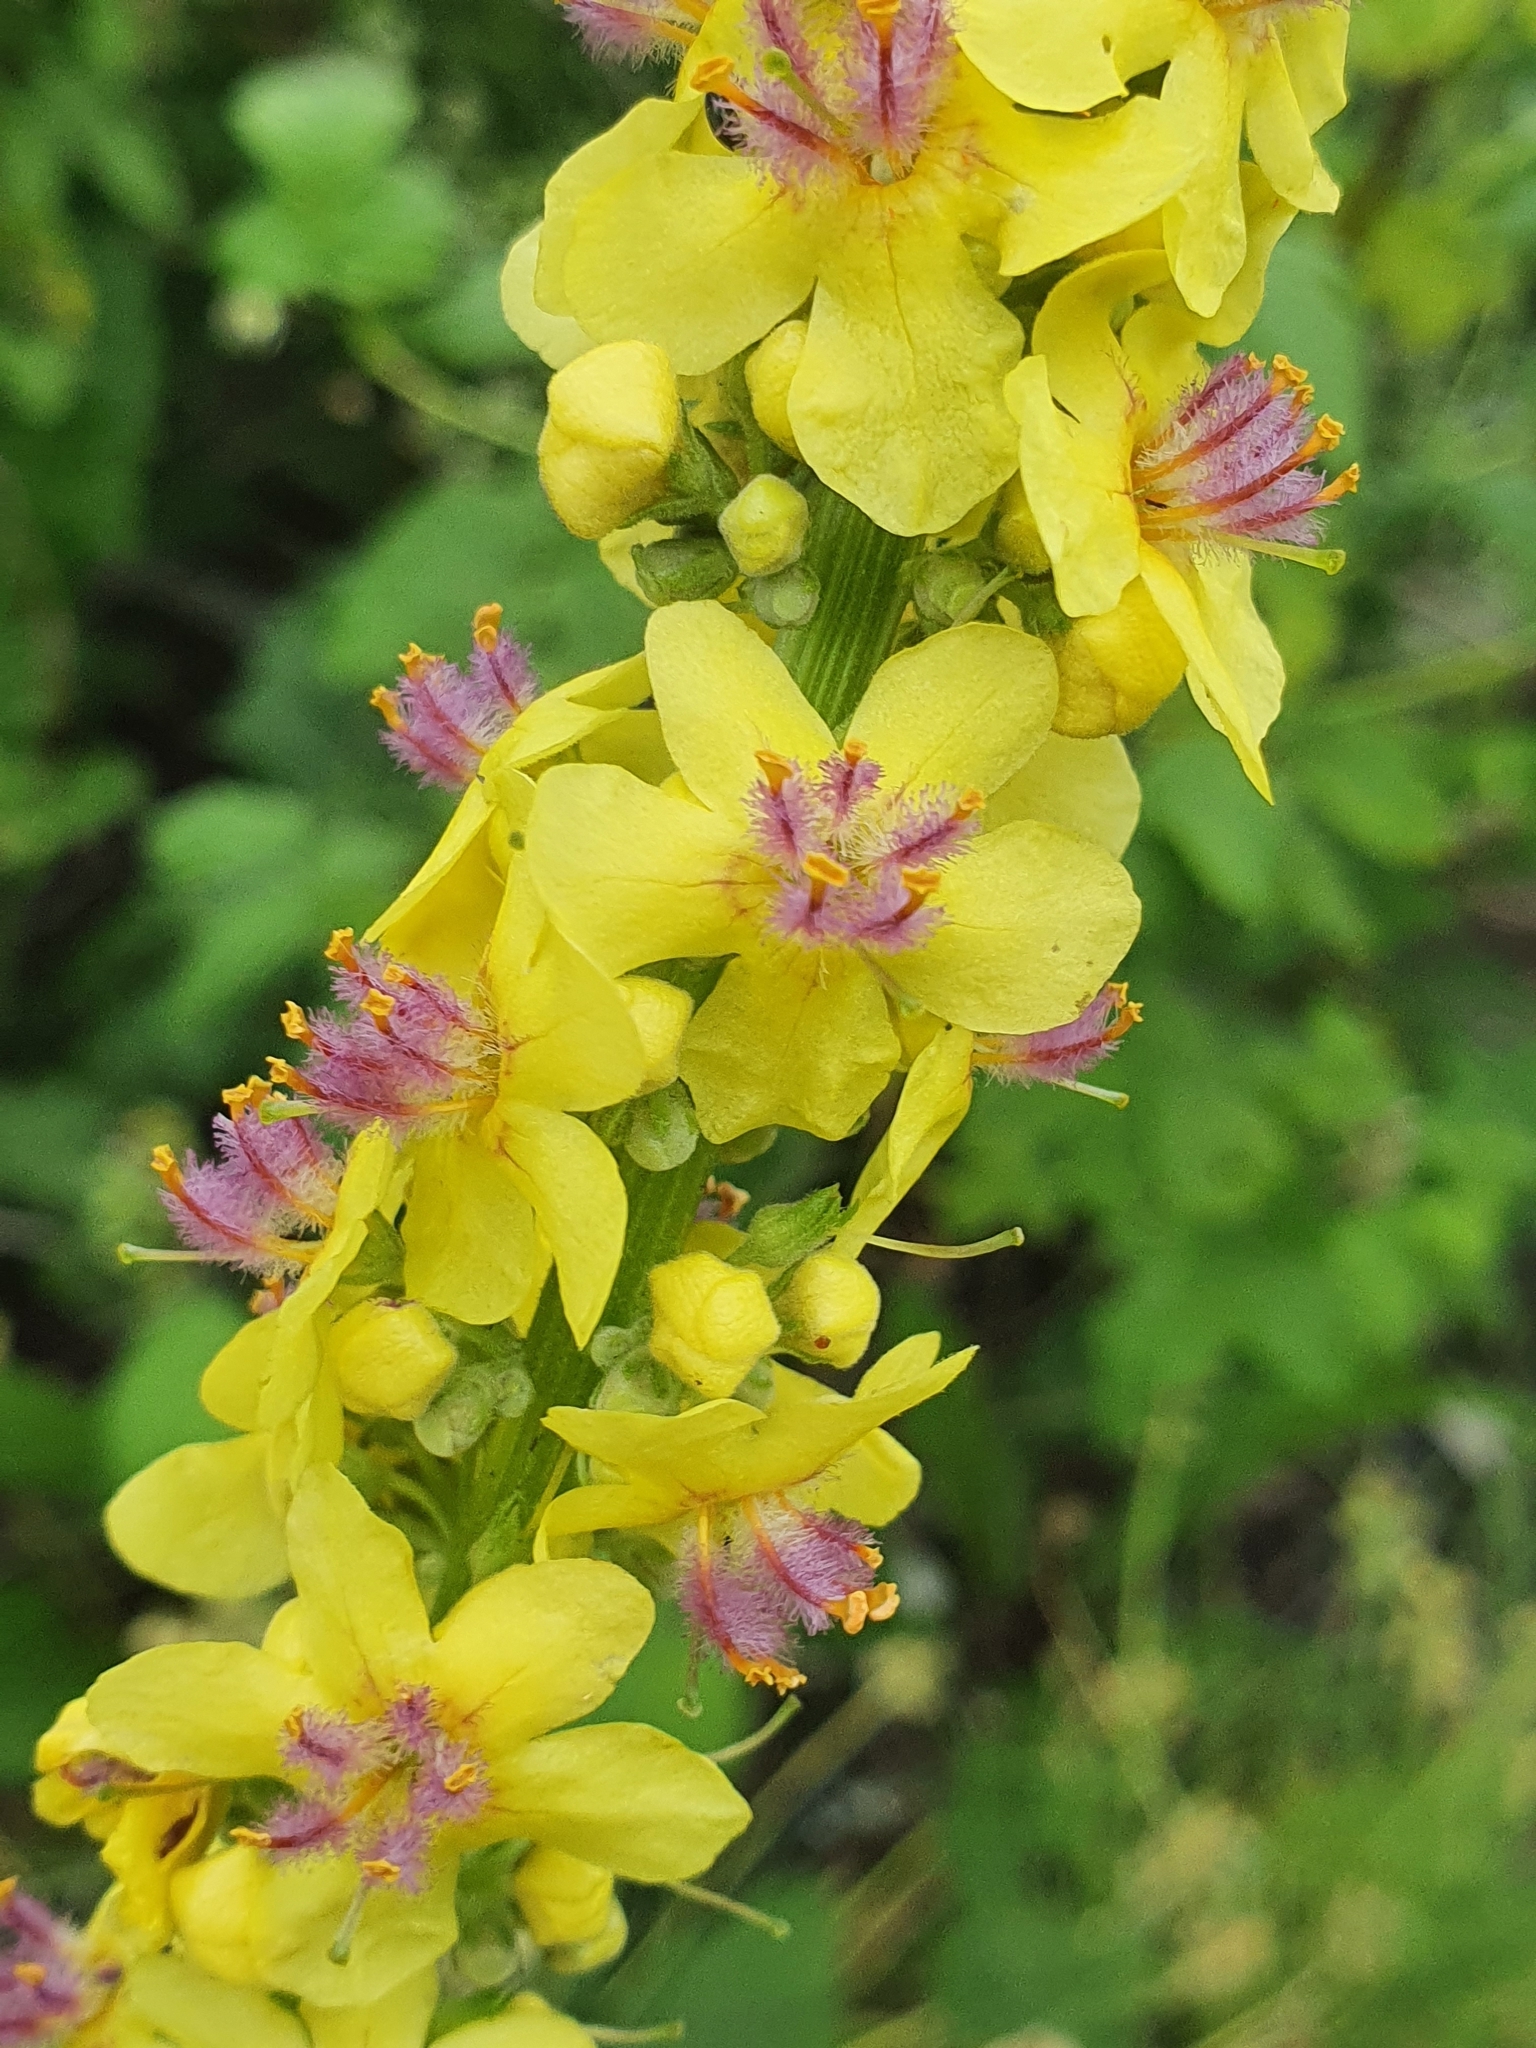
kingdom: Plantae
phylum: Tracheophyta
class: Magnoliopsida
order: Lamiales
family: Scrophulariaceae
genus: Verbascum
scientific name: Verbascum nigrum
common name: Dark mullein
